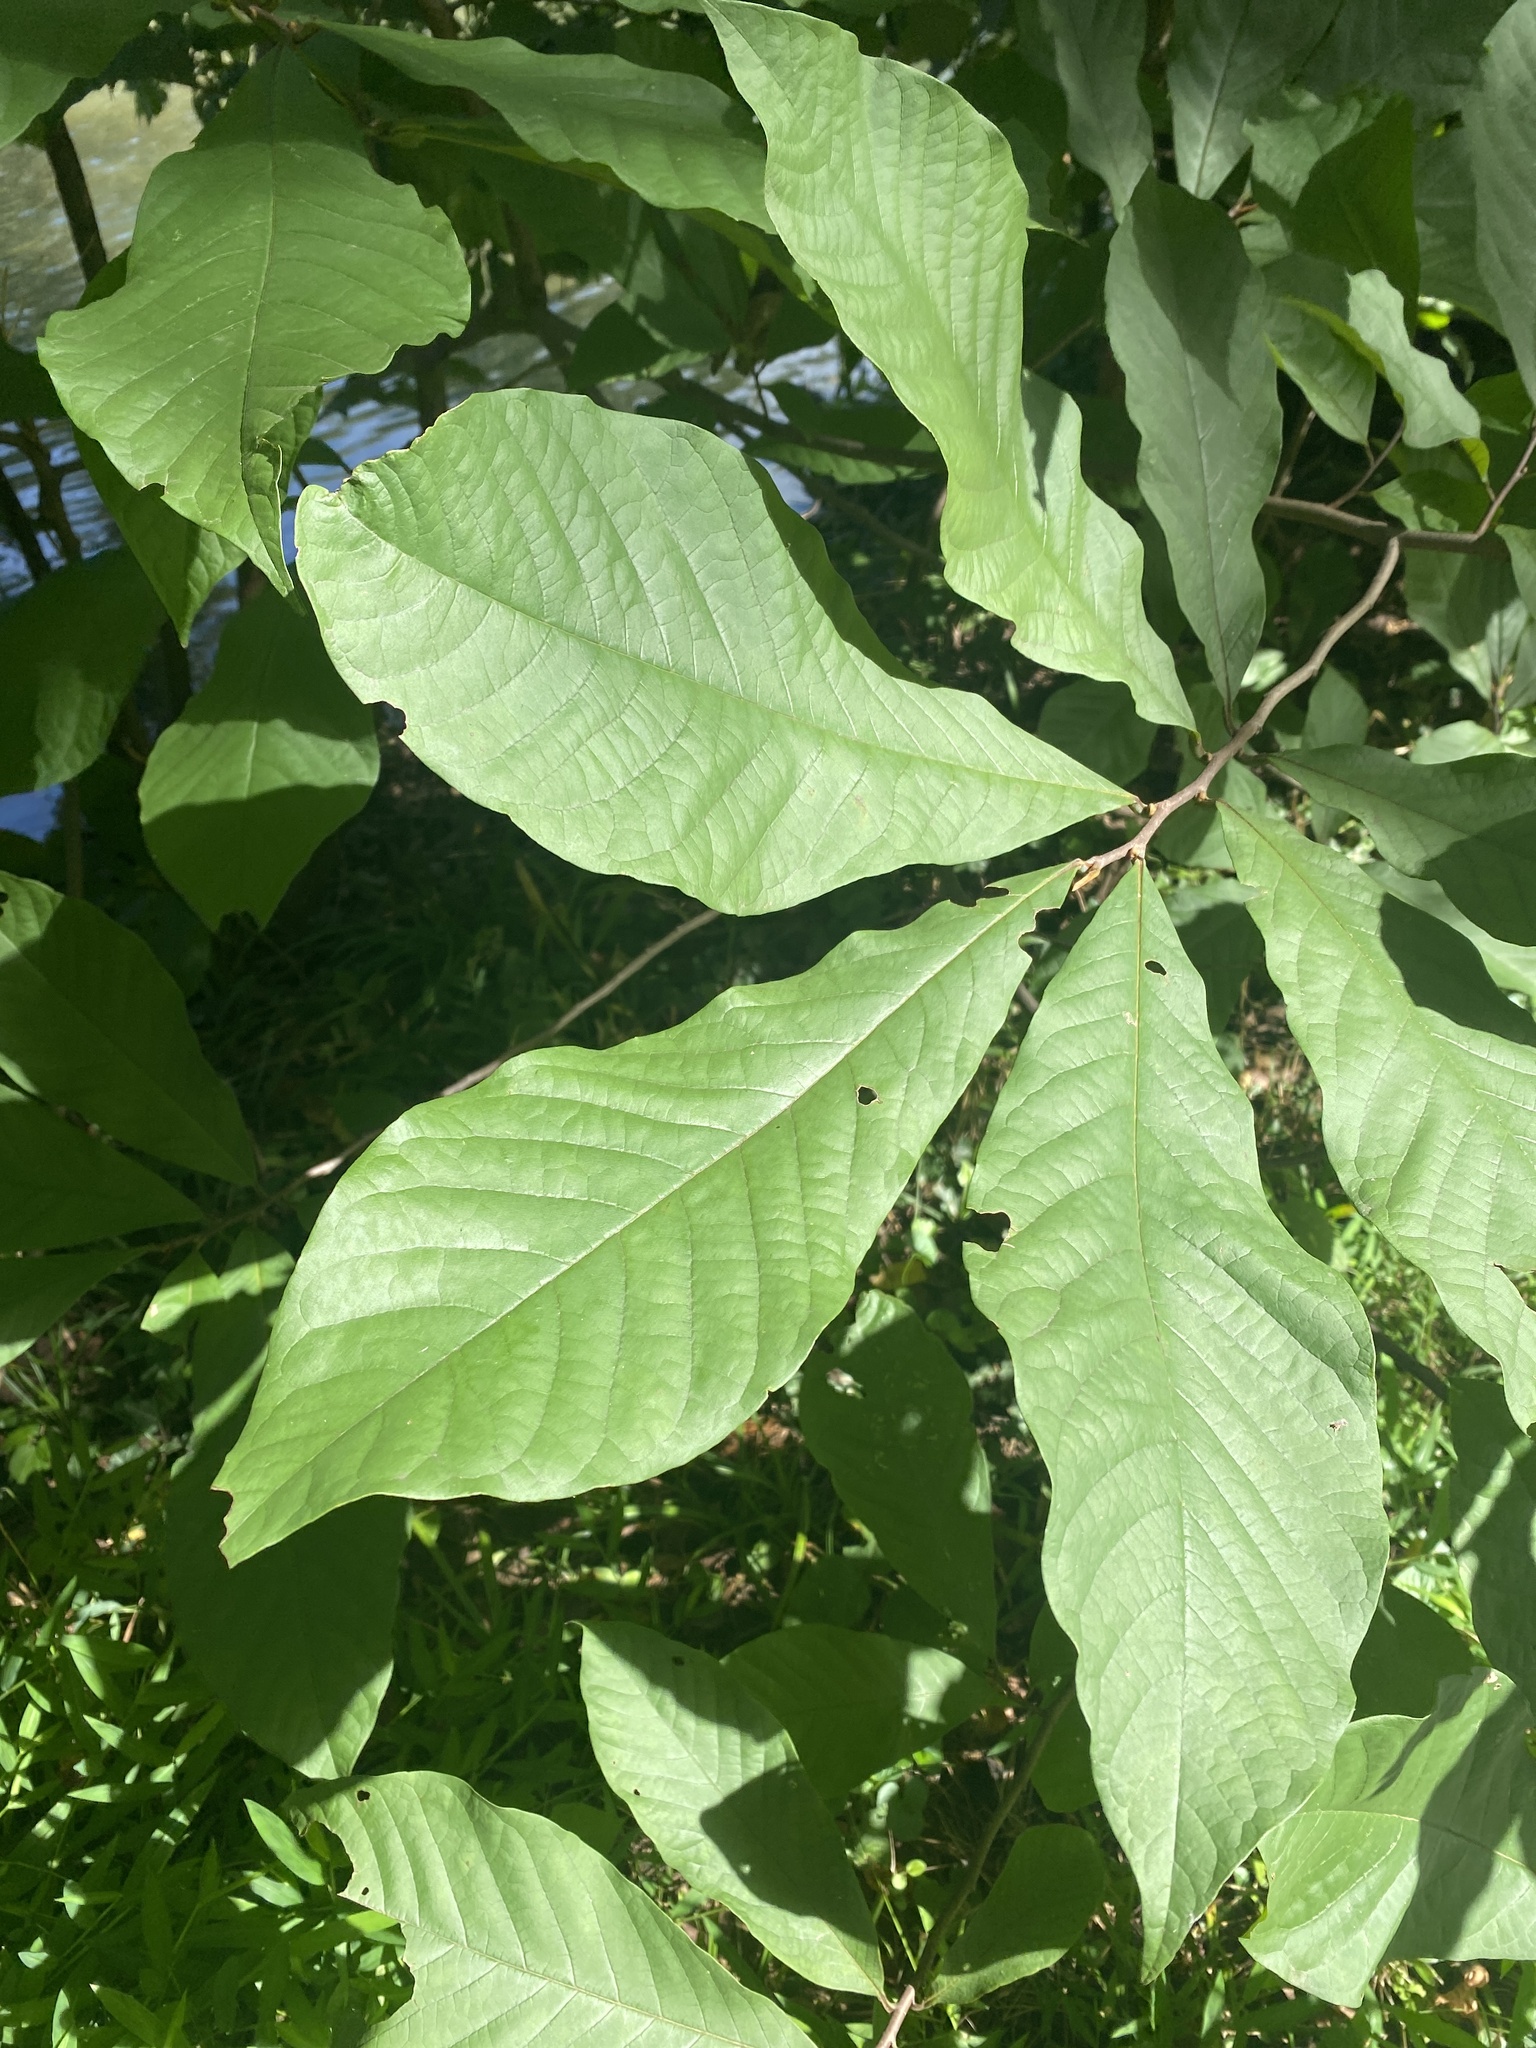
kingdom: Plantae
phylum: Tracheophyta
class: Magnoliopsida
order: Magnoliales
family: Annonaceae
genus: Asimina
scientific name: Asimina triloba
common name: Dog-banana
